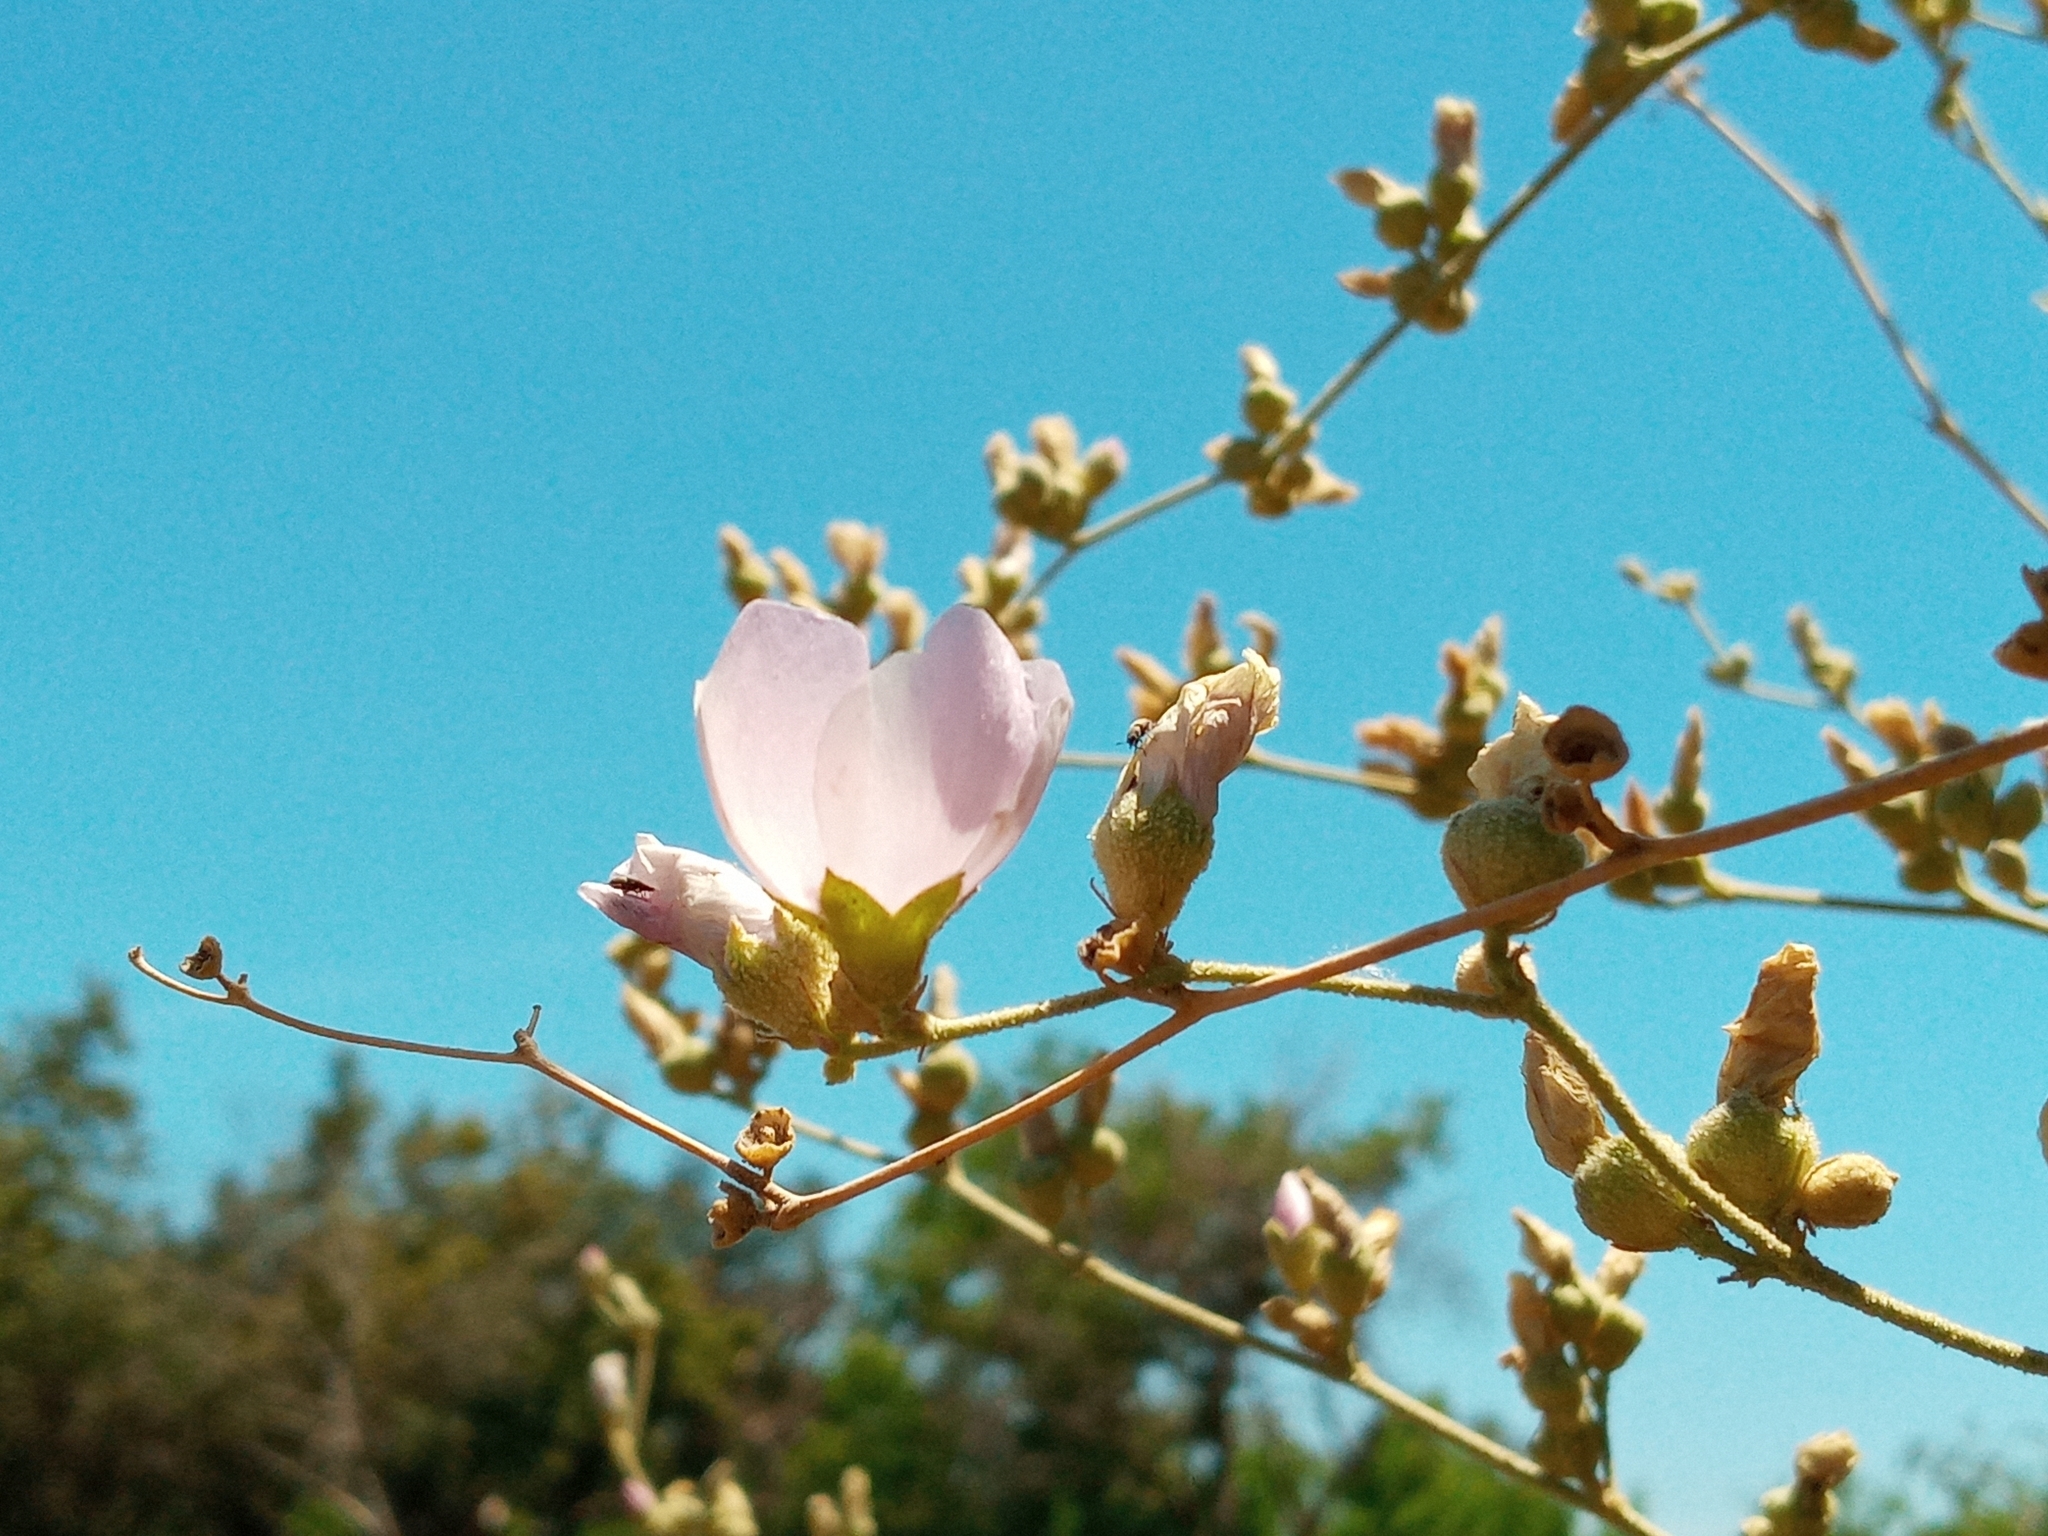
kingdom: Plantae
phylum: Tracheophyta
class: Magnoliopsida
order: Malvales
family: Malvaceae
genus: Malacothamnus
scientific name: Malacothamnus fasciculatus
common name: Sant cruz island bush-mallow
